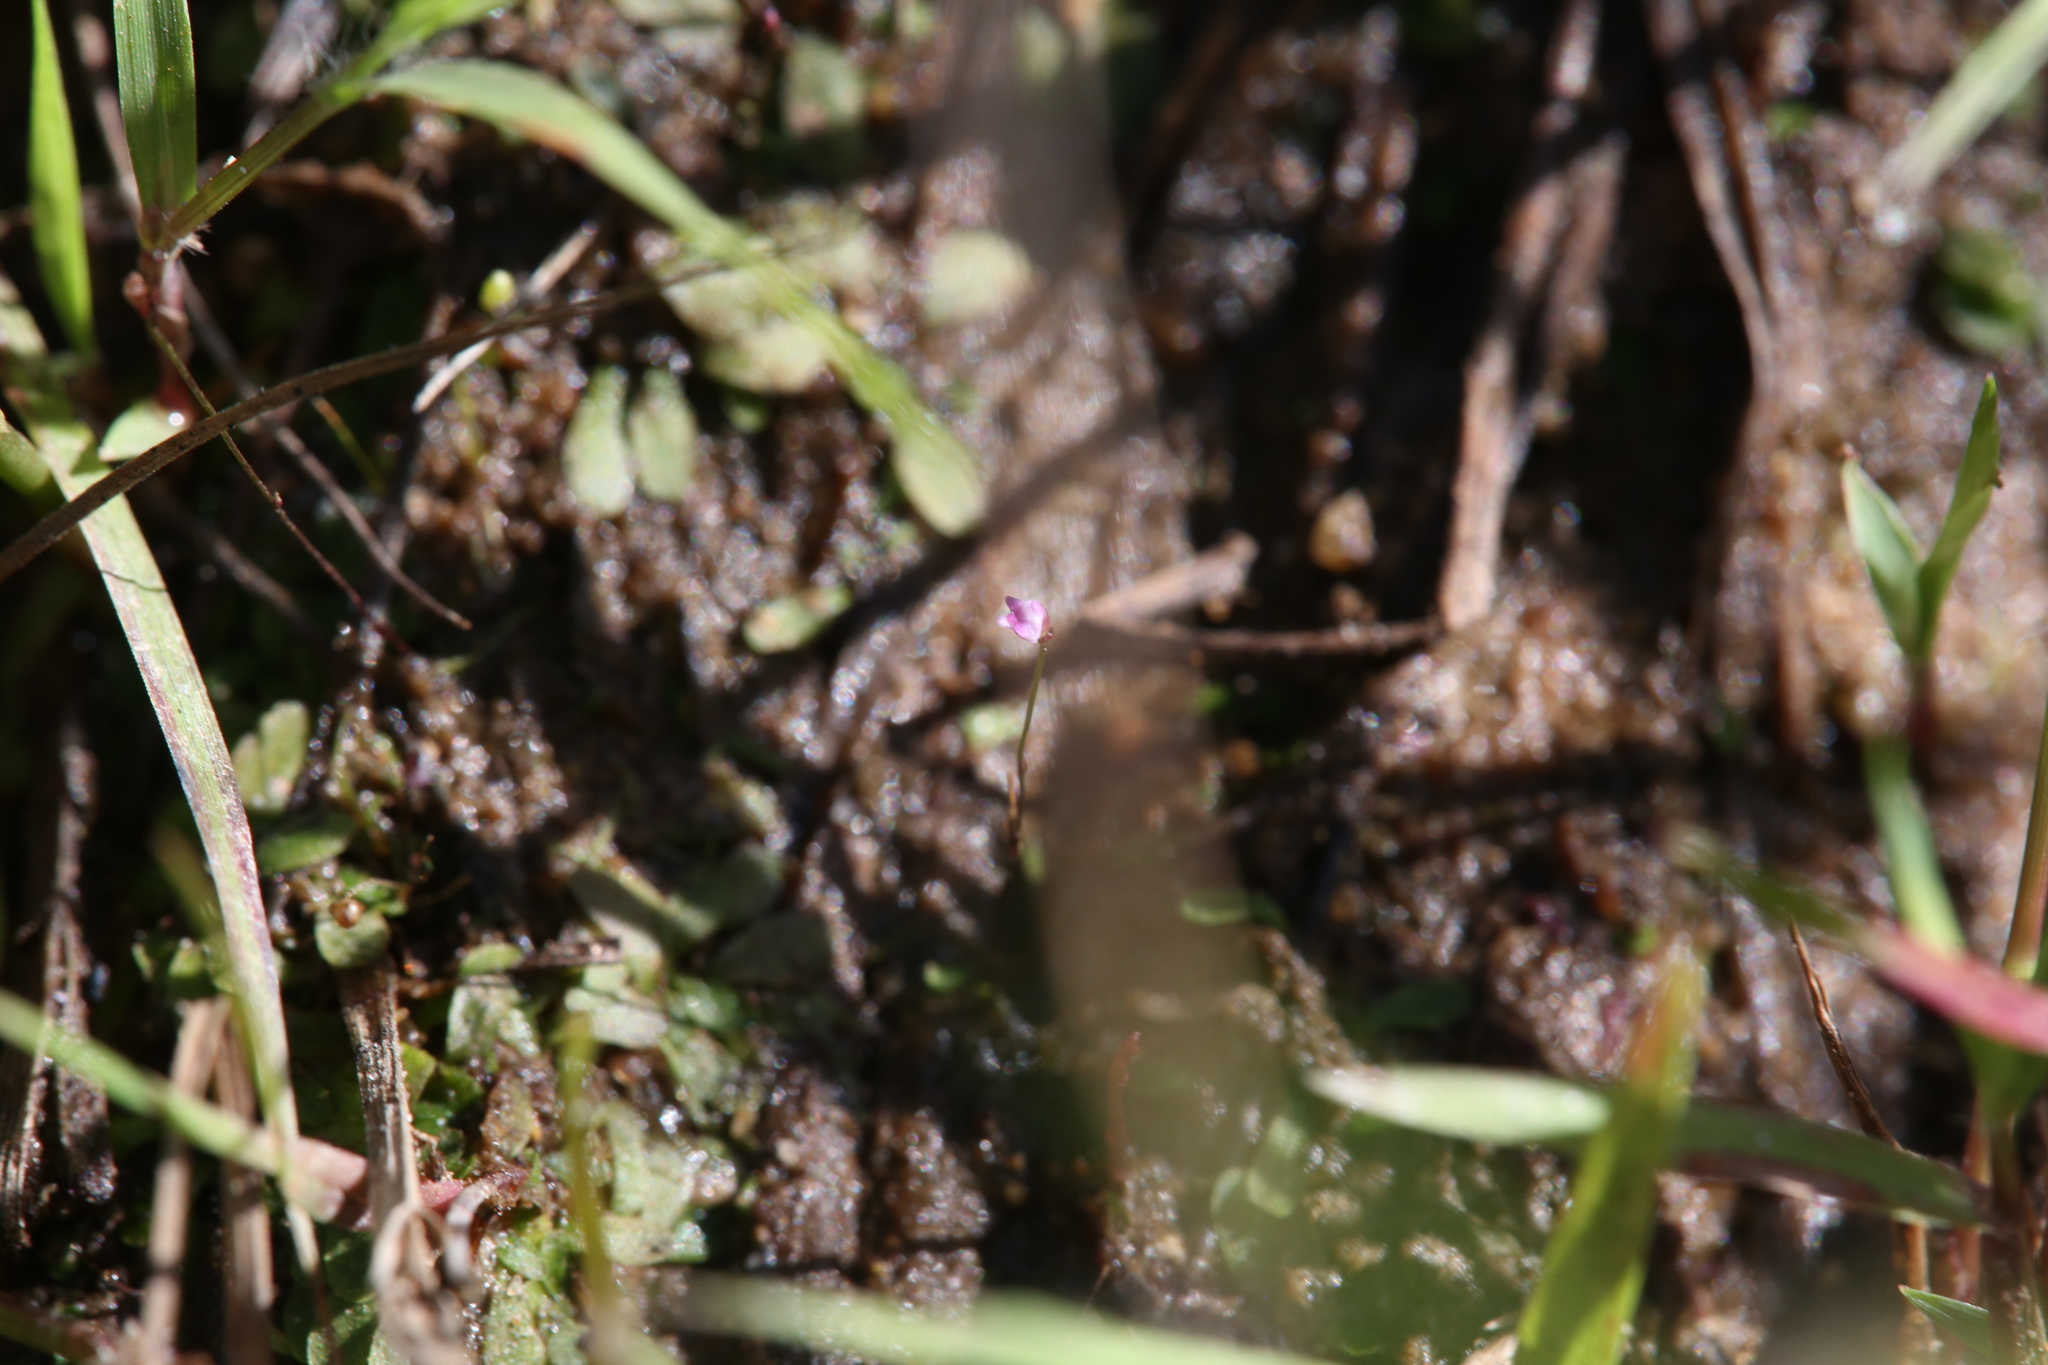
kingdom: Plantae
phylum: Tracheophyta
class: Magnoliopsida
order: Lamiales
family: Lentibulariaceae
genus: Utricularia
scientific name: Utricularia minutissima
